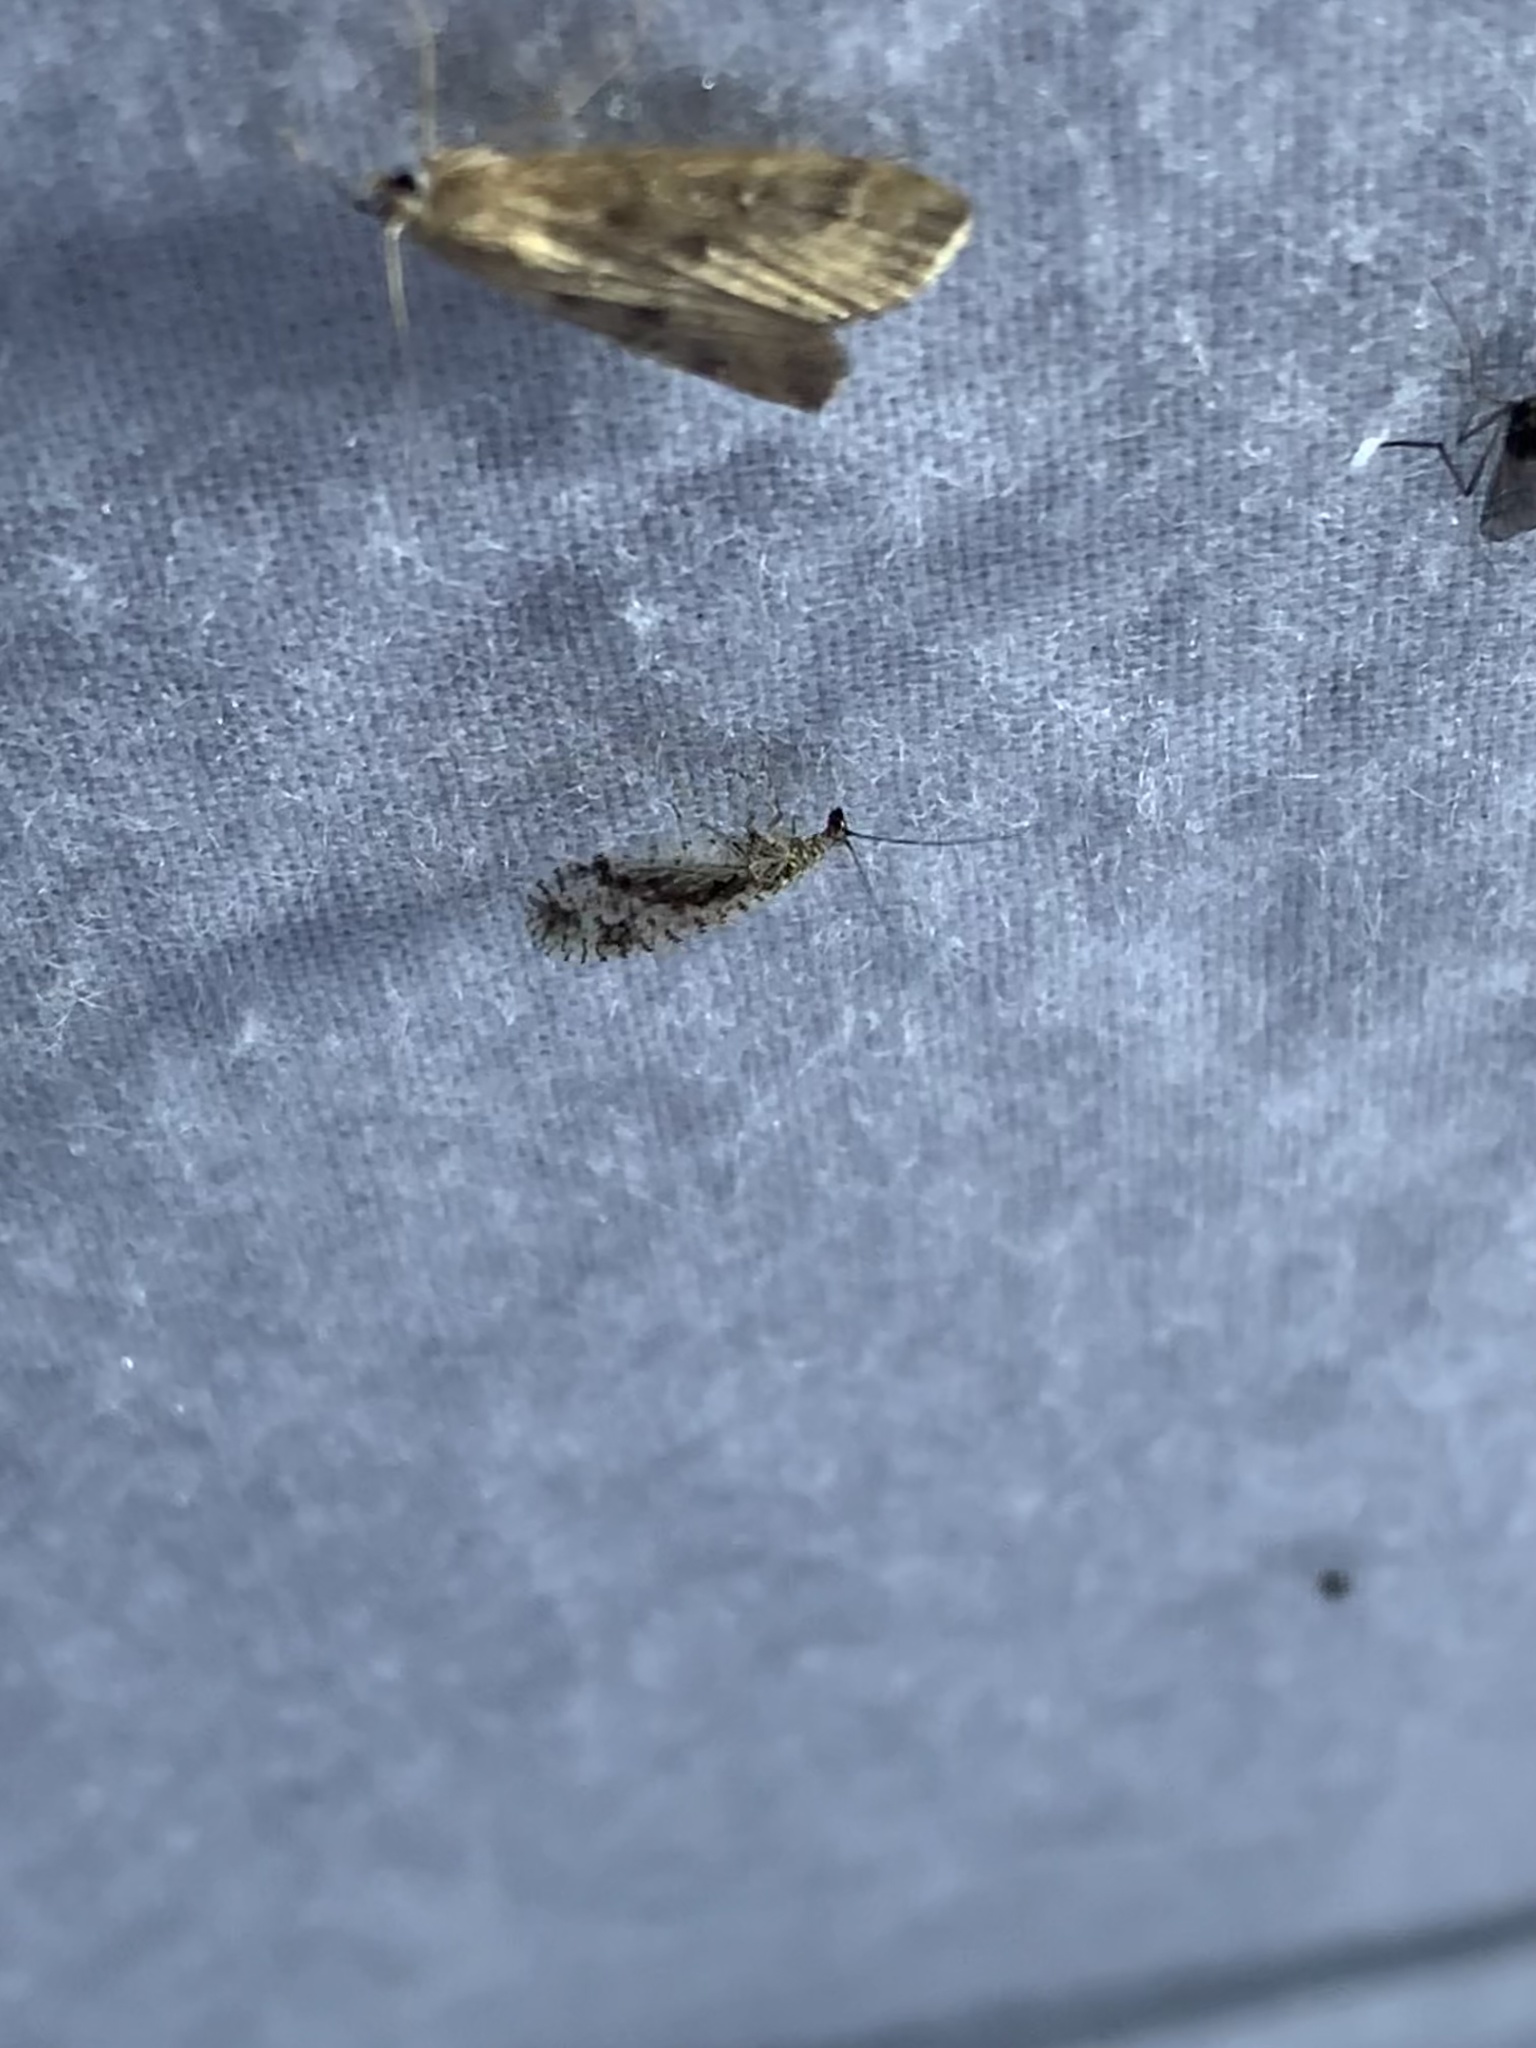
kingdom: Animalia
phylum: Arthropoda
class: Insecta
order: Neuroptera
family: Hemerobiidae
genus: Micromus
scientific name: Micromus variegatus
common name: Brown lacewing
